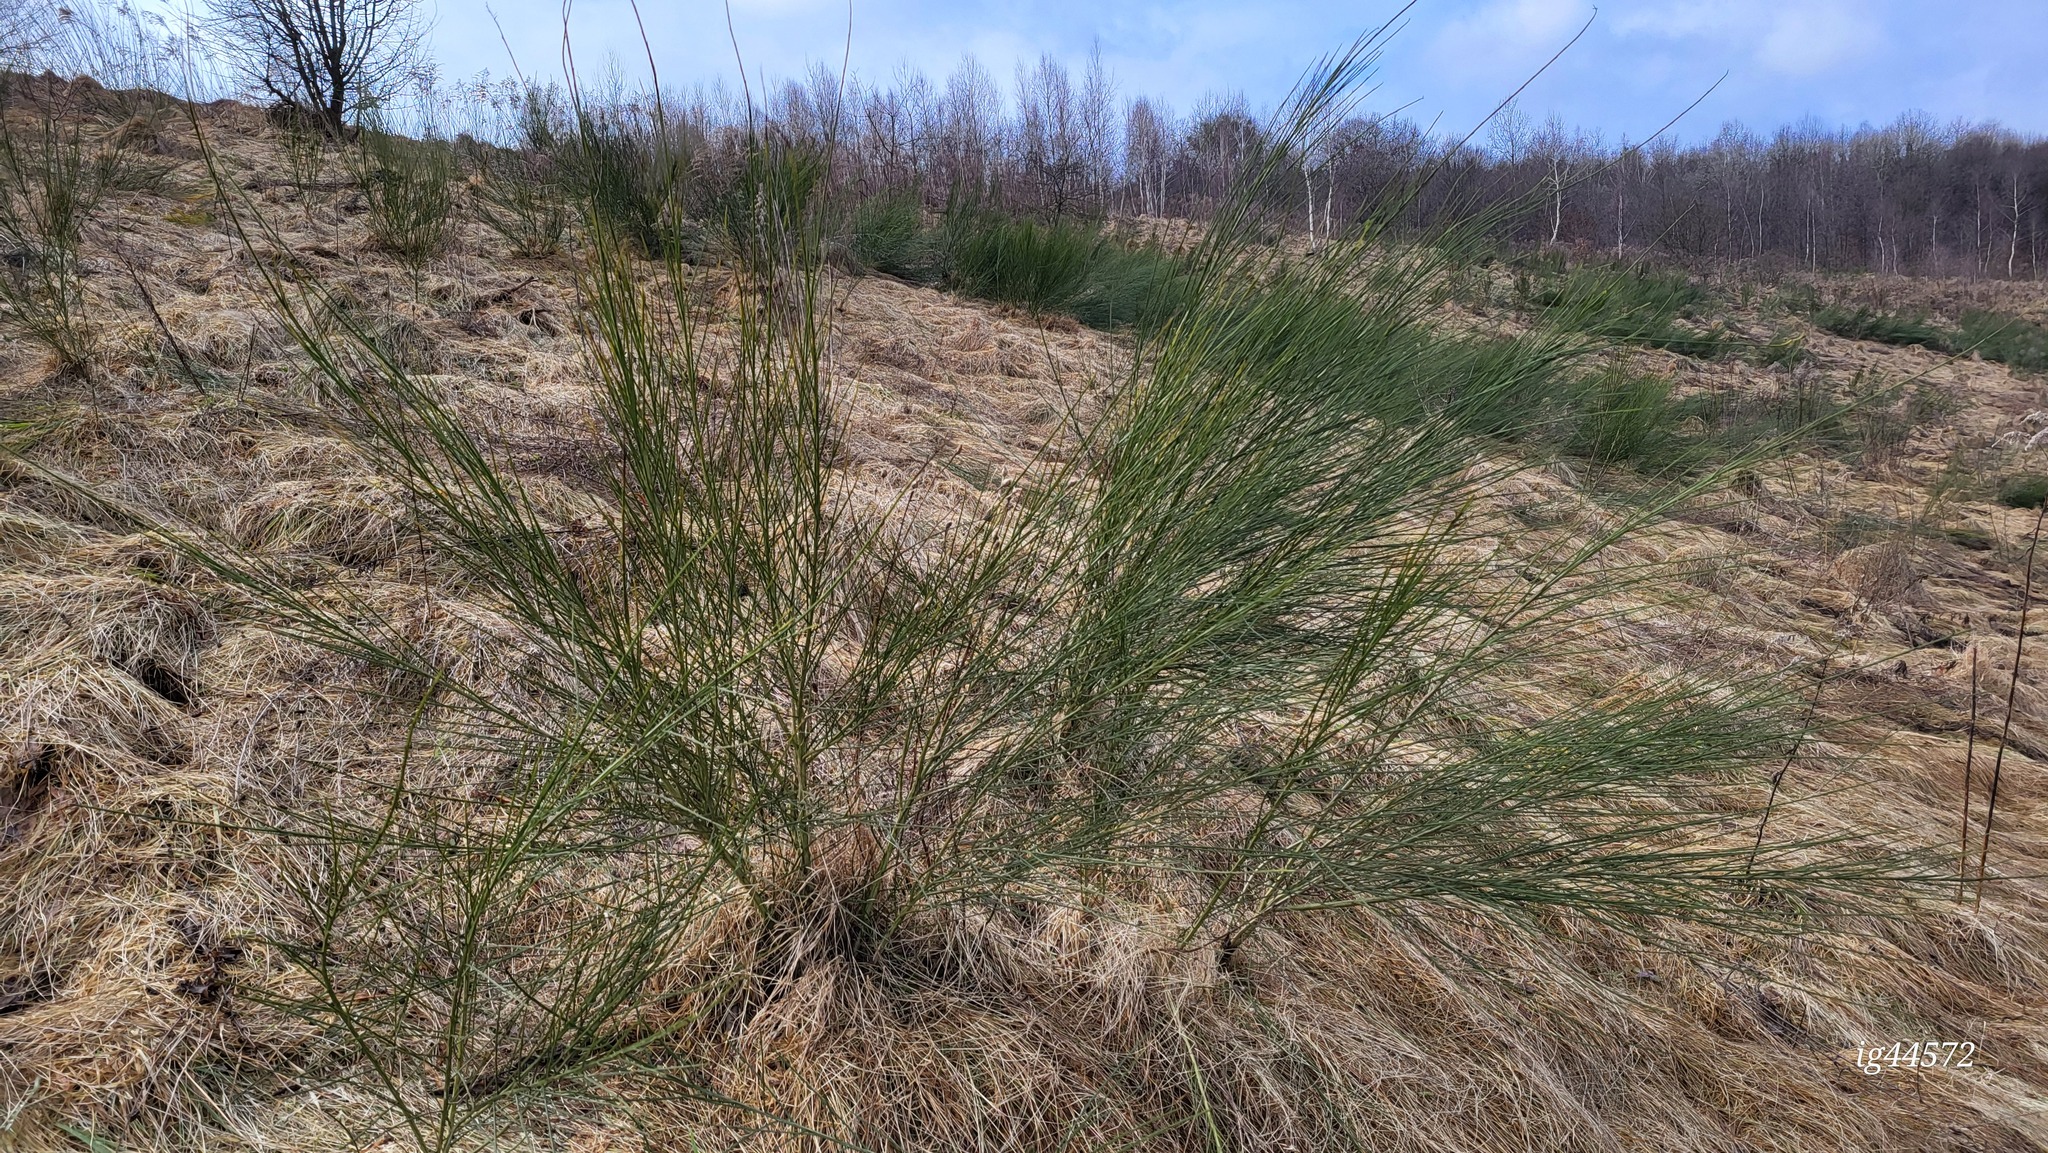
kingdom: Plantae
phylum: Tracheophyta
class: Magnoliopsida
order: Fabales
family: Fabaceae
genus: Cytisus
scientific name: Cytisus scoparius
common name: Scotch broom
